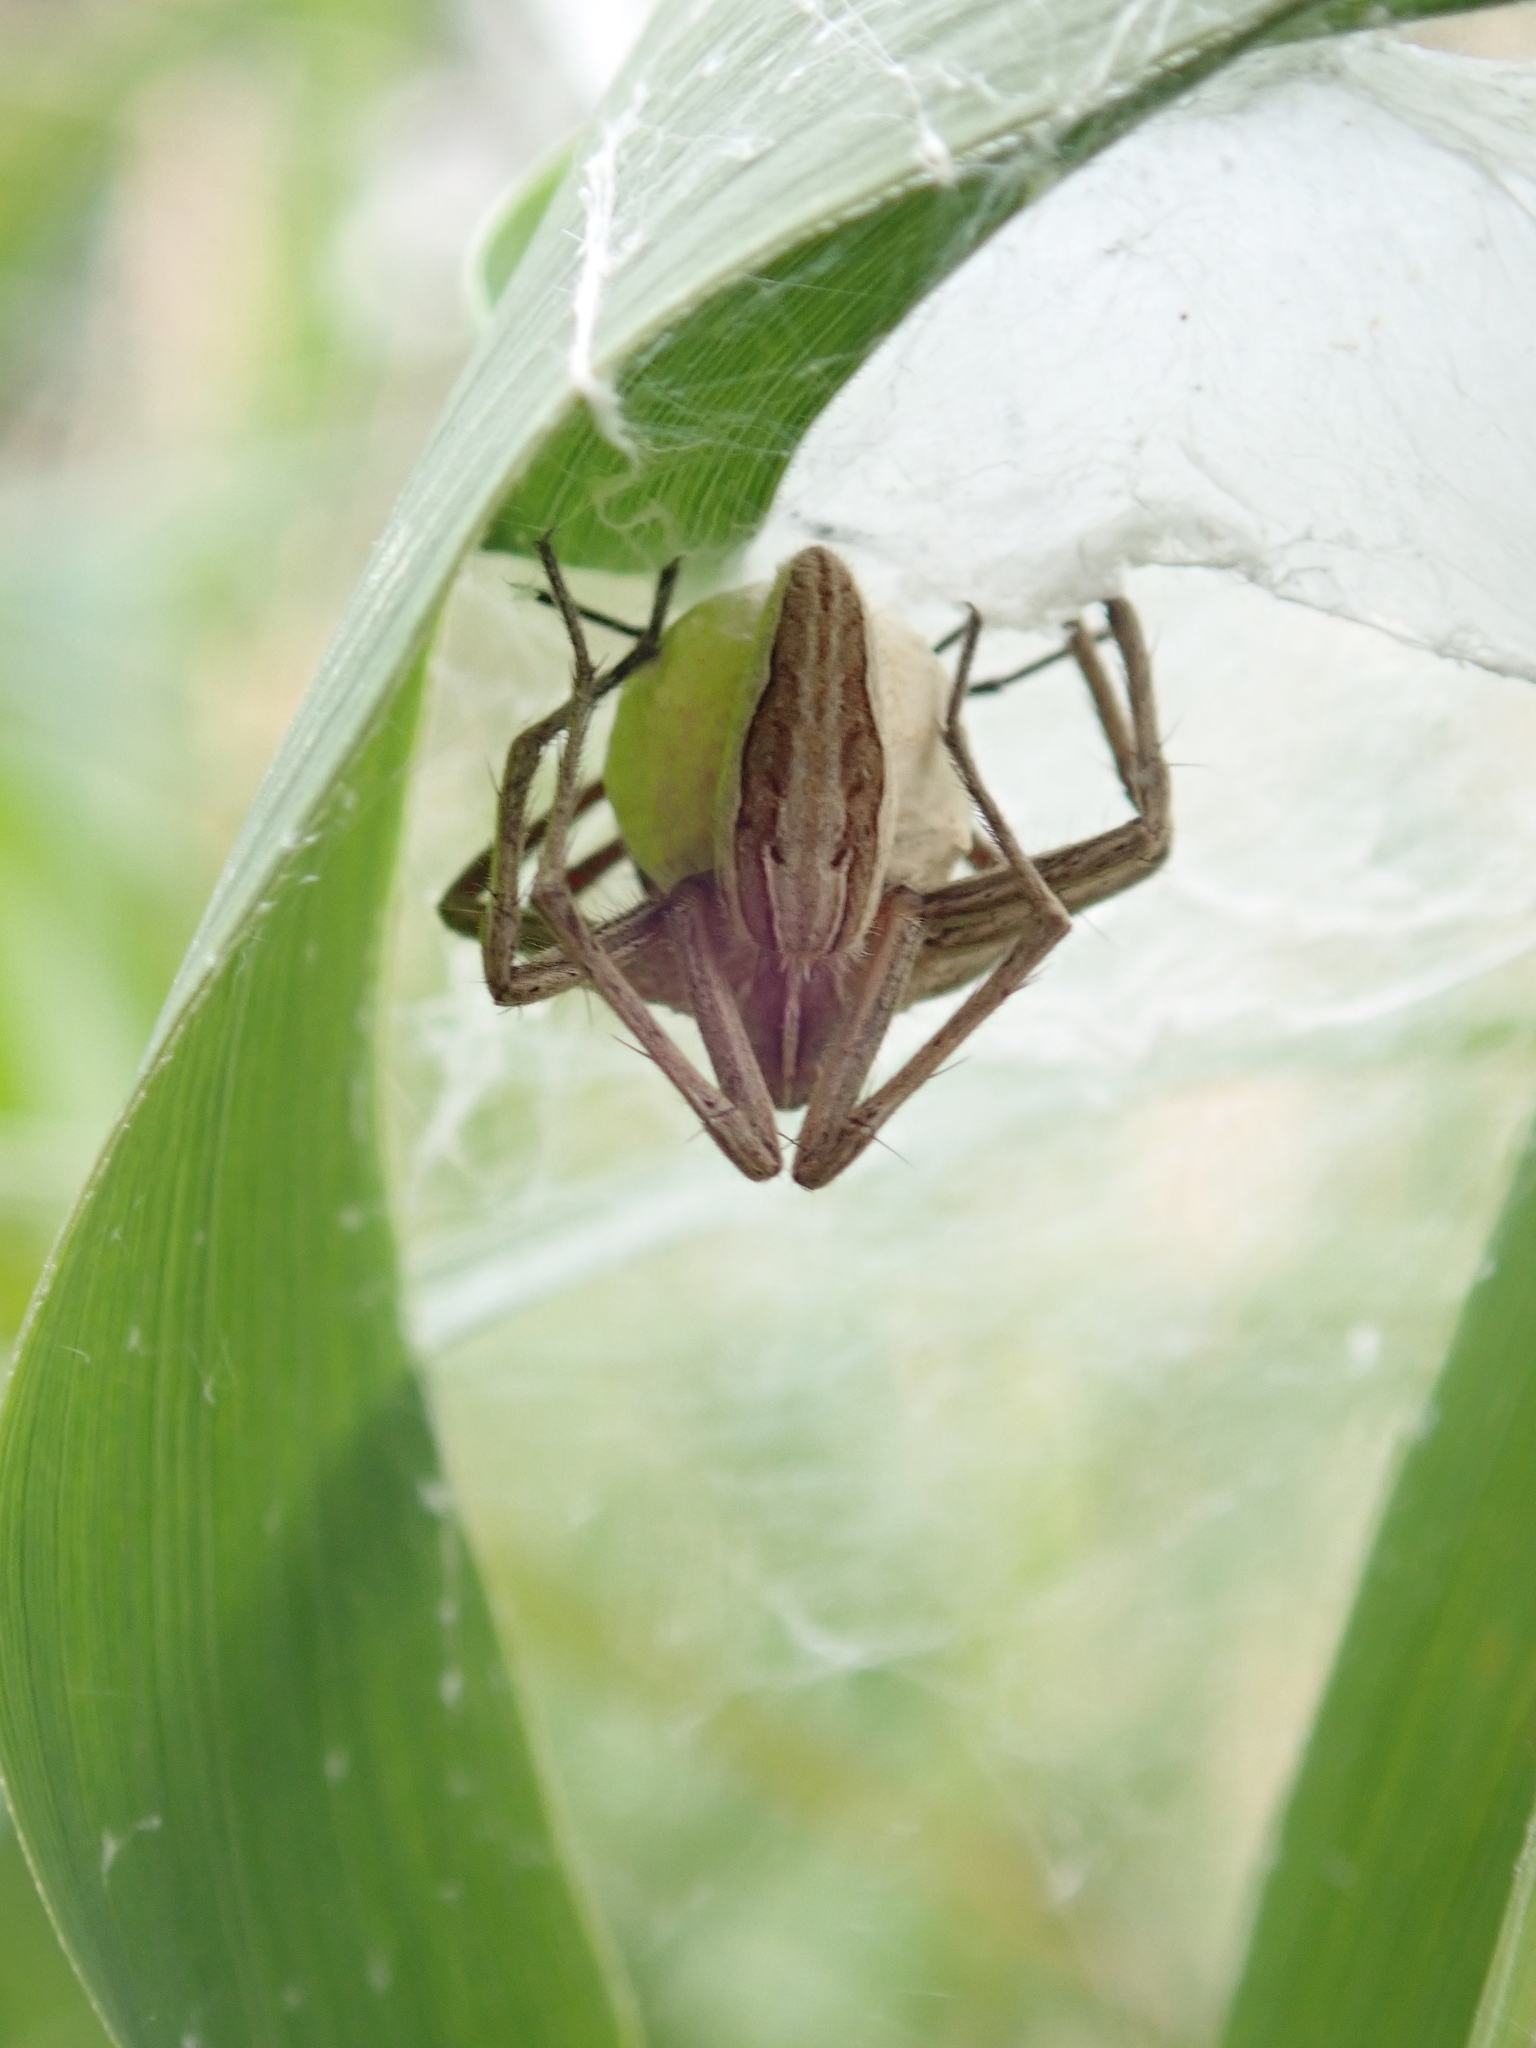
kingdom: Animalia
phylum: Arthropoda
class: Arachnida
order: Araneae
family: Pisauridae
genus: Pisaura
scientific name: Pisaura mirabilis
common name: Tent spider
